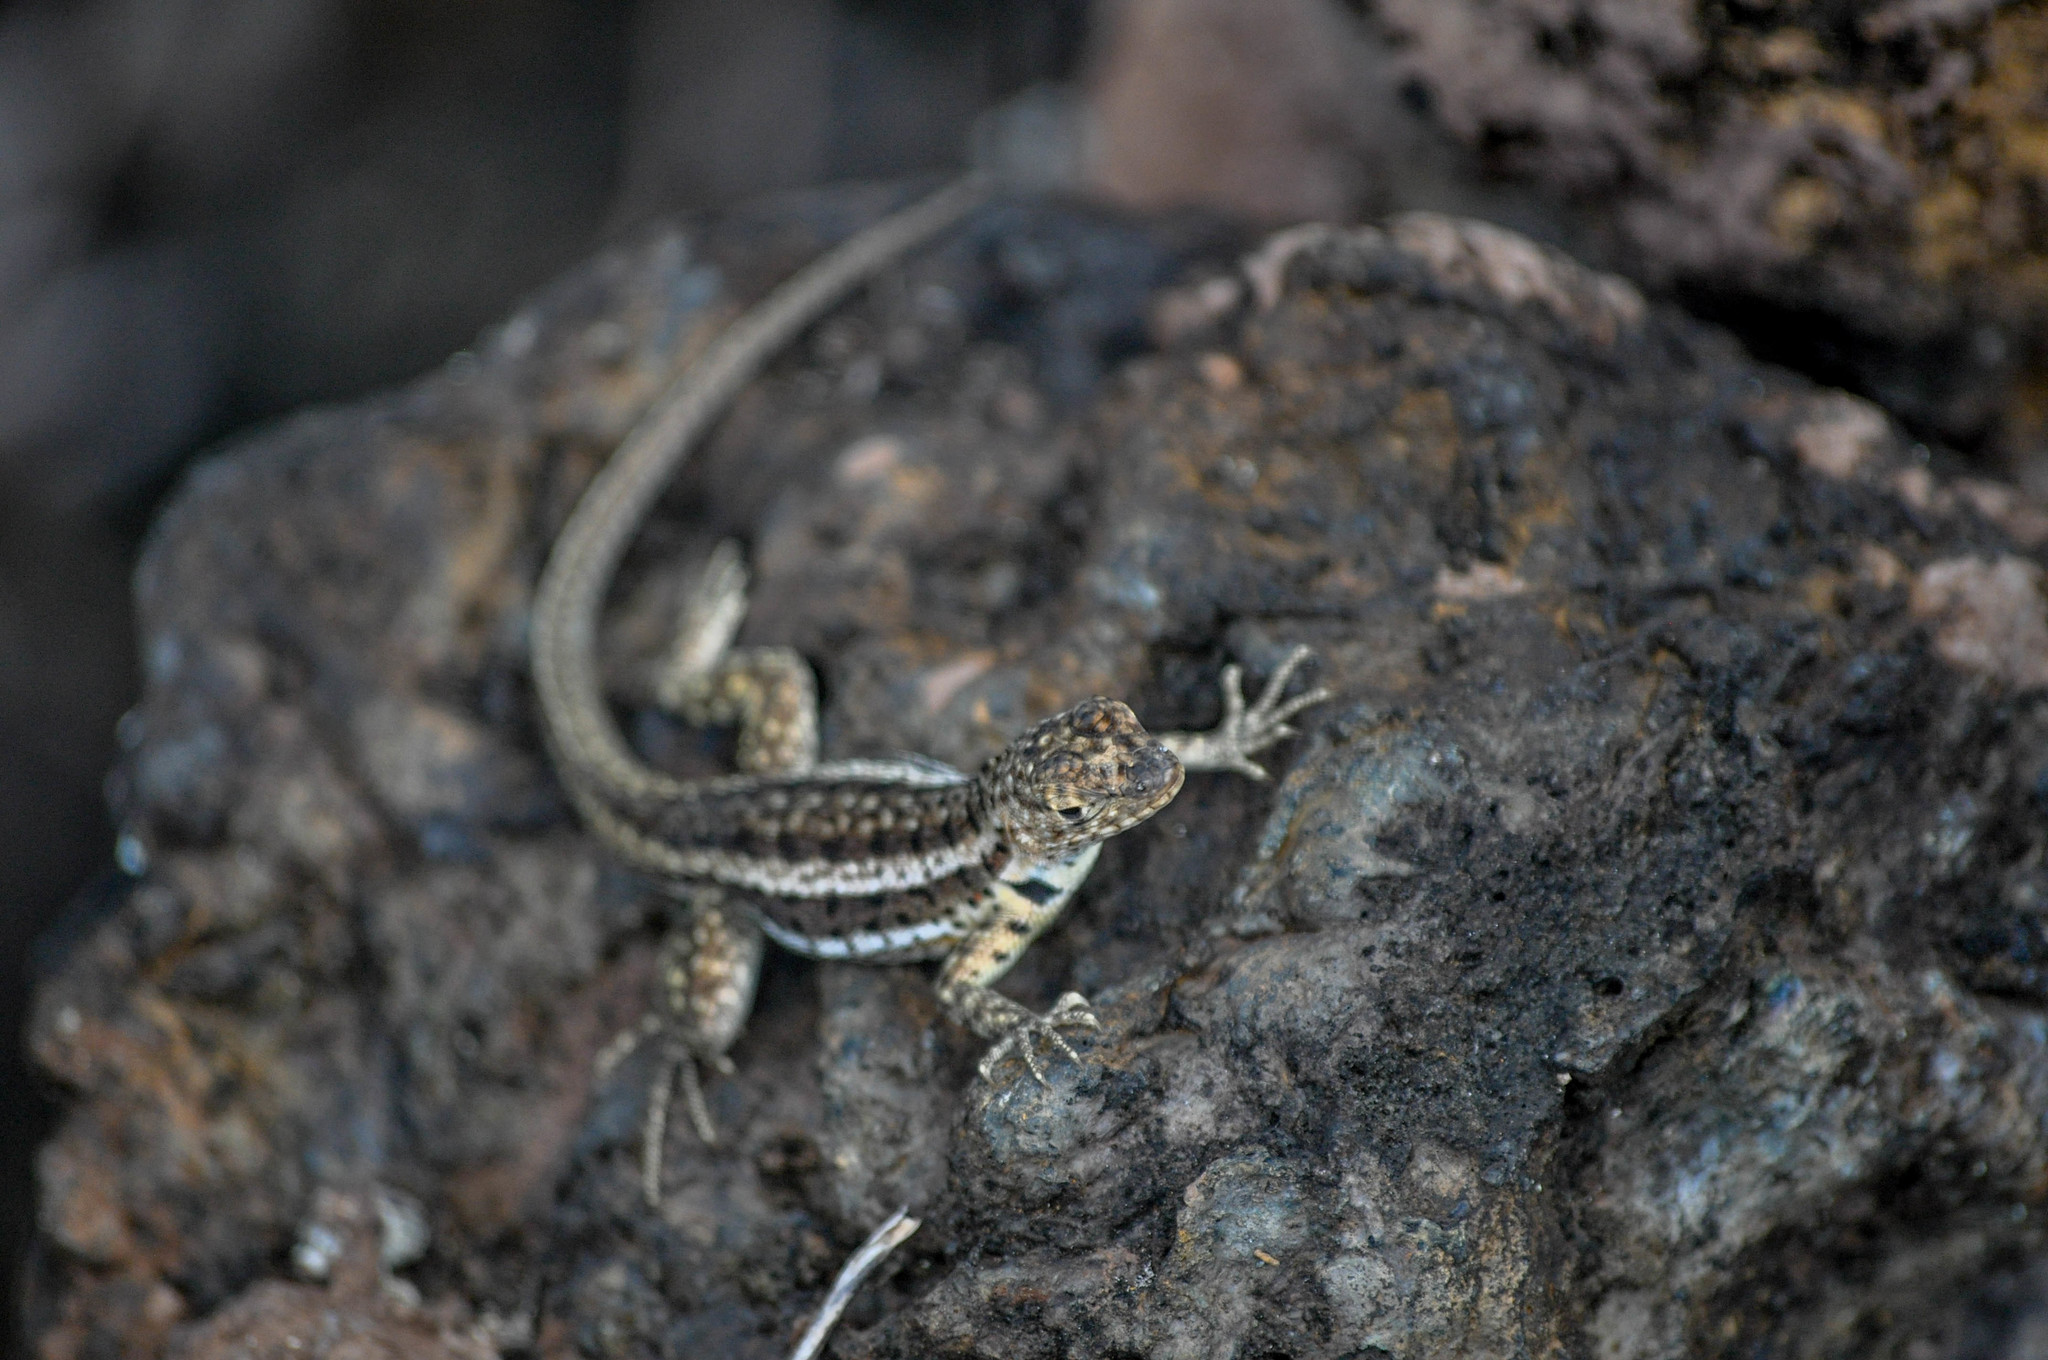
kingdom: Animalia
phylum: Chordata
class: Squamata
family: Tropiduridae
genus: Microlophus
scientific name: Microlophus albemarlensis
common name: Galapagos lava lizard
